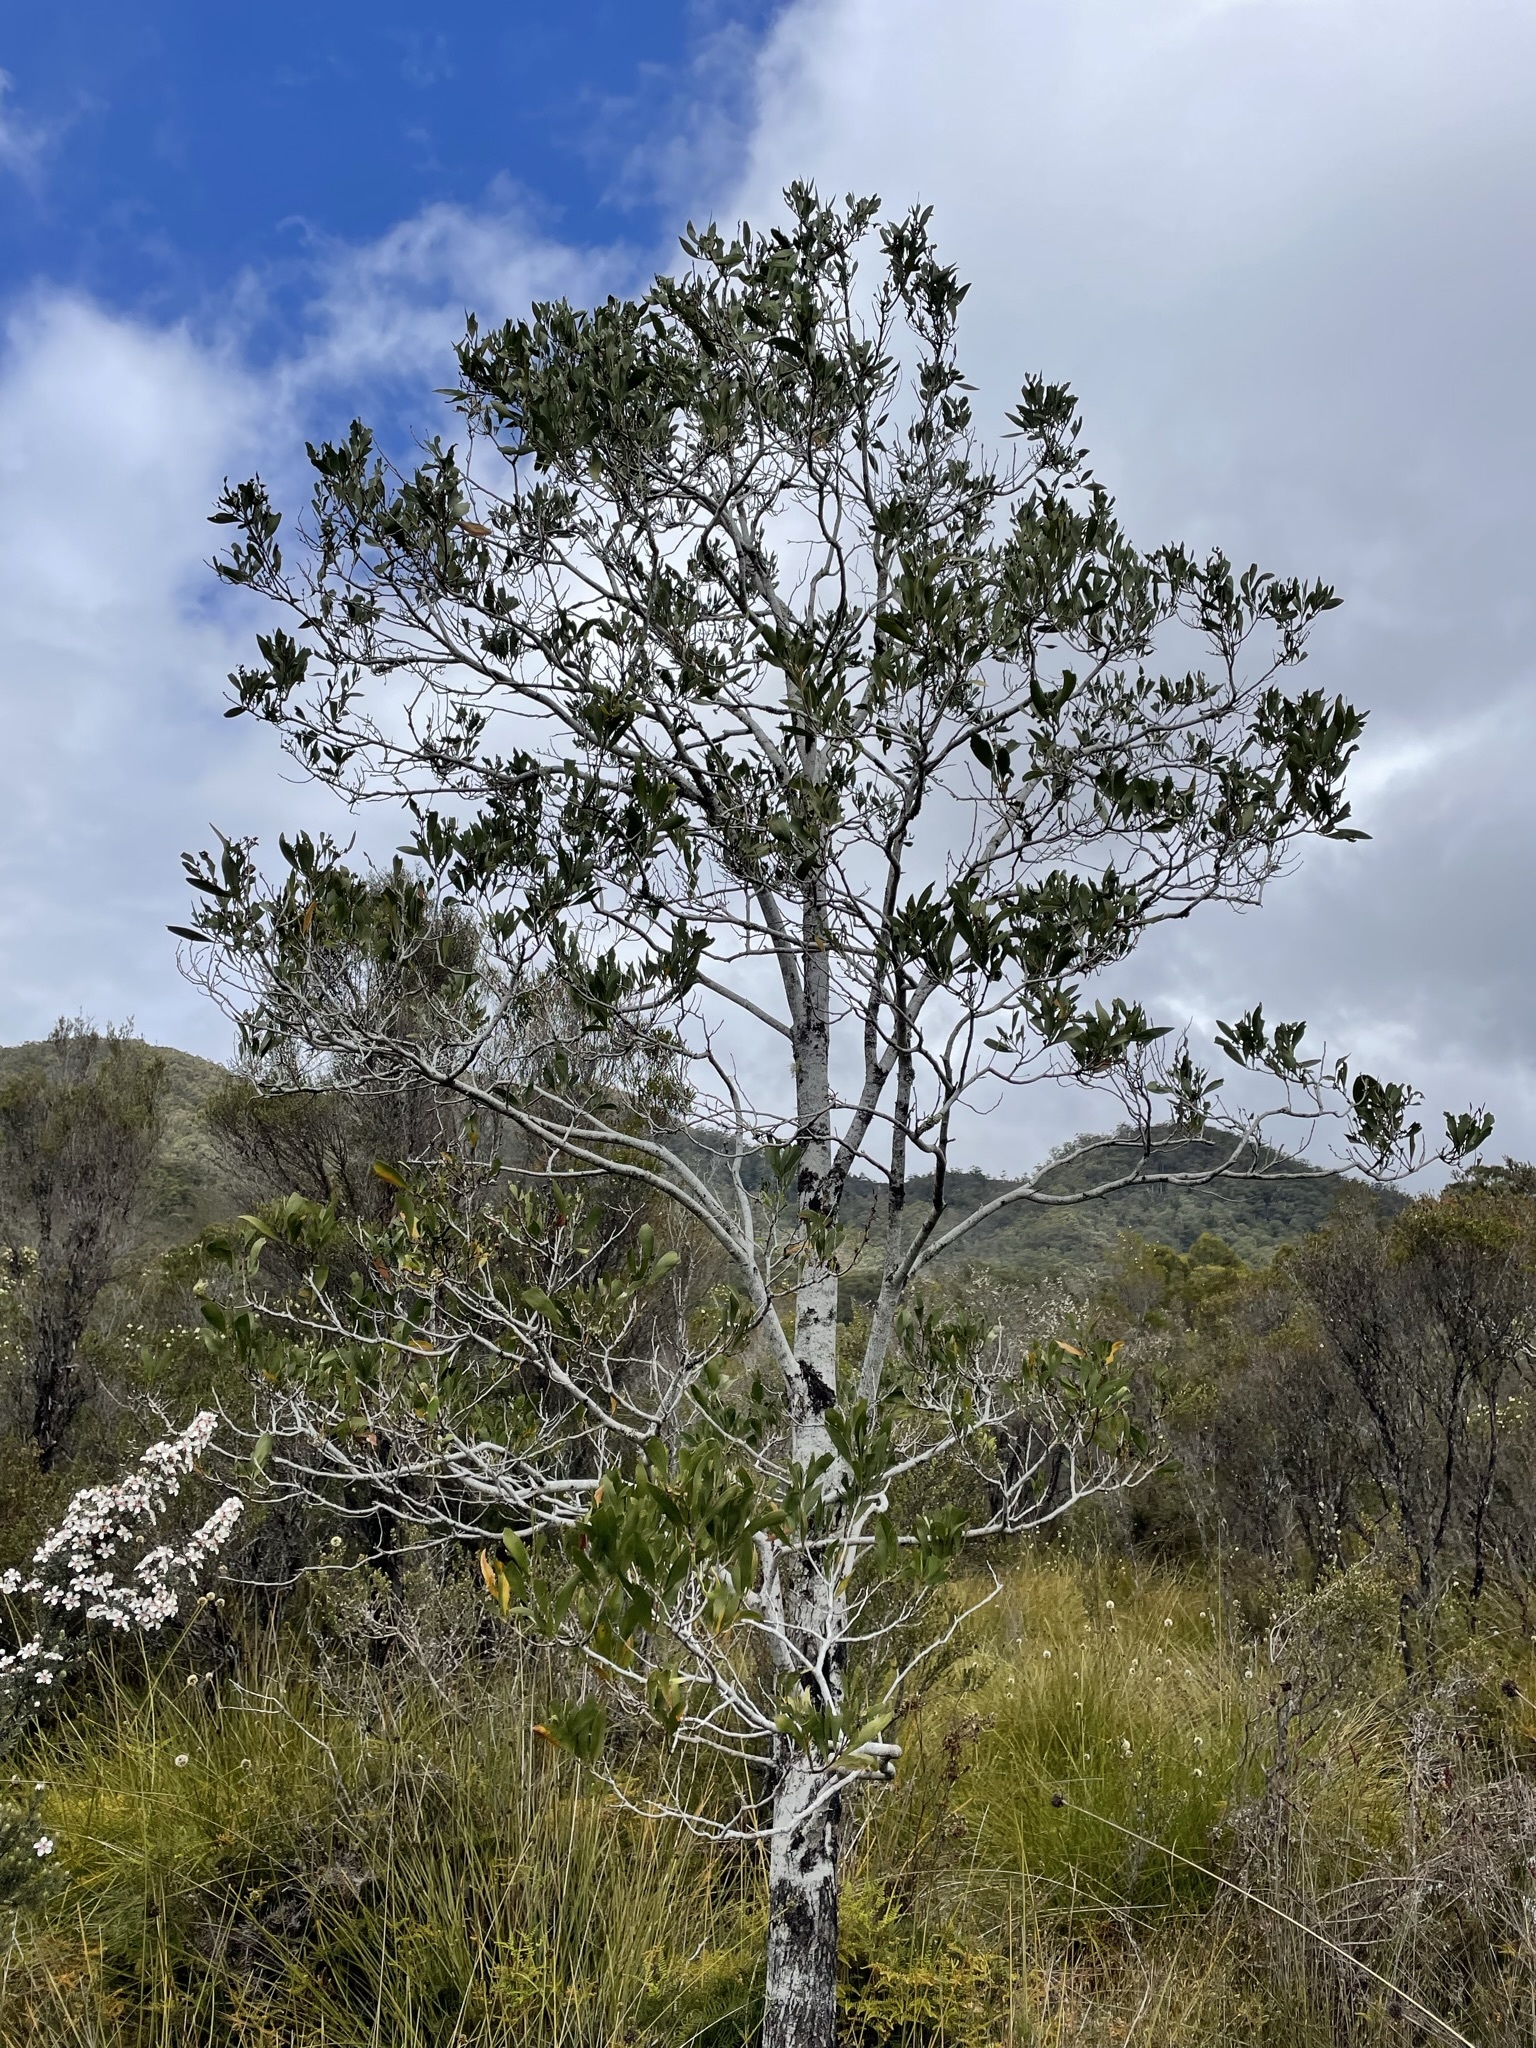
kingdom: Plantae
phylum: Tracheophyta
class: Magnoliopsida
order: Fabales
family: Fabaceae
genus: Acacia
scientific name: Acacia melanoxylon
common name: Blackwood
